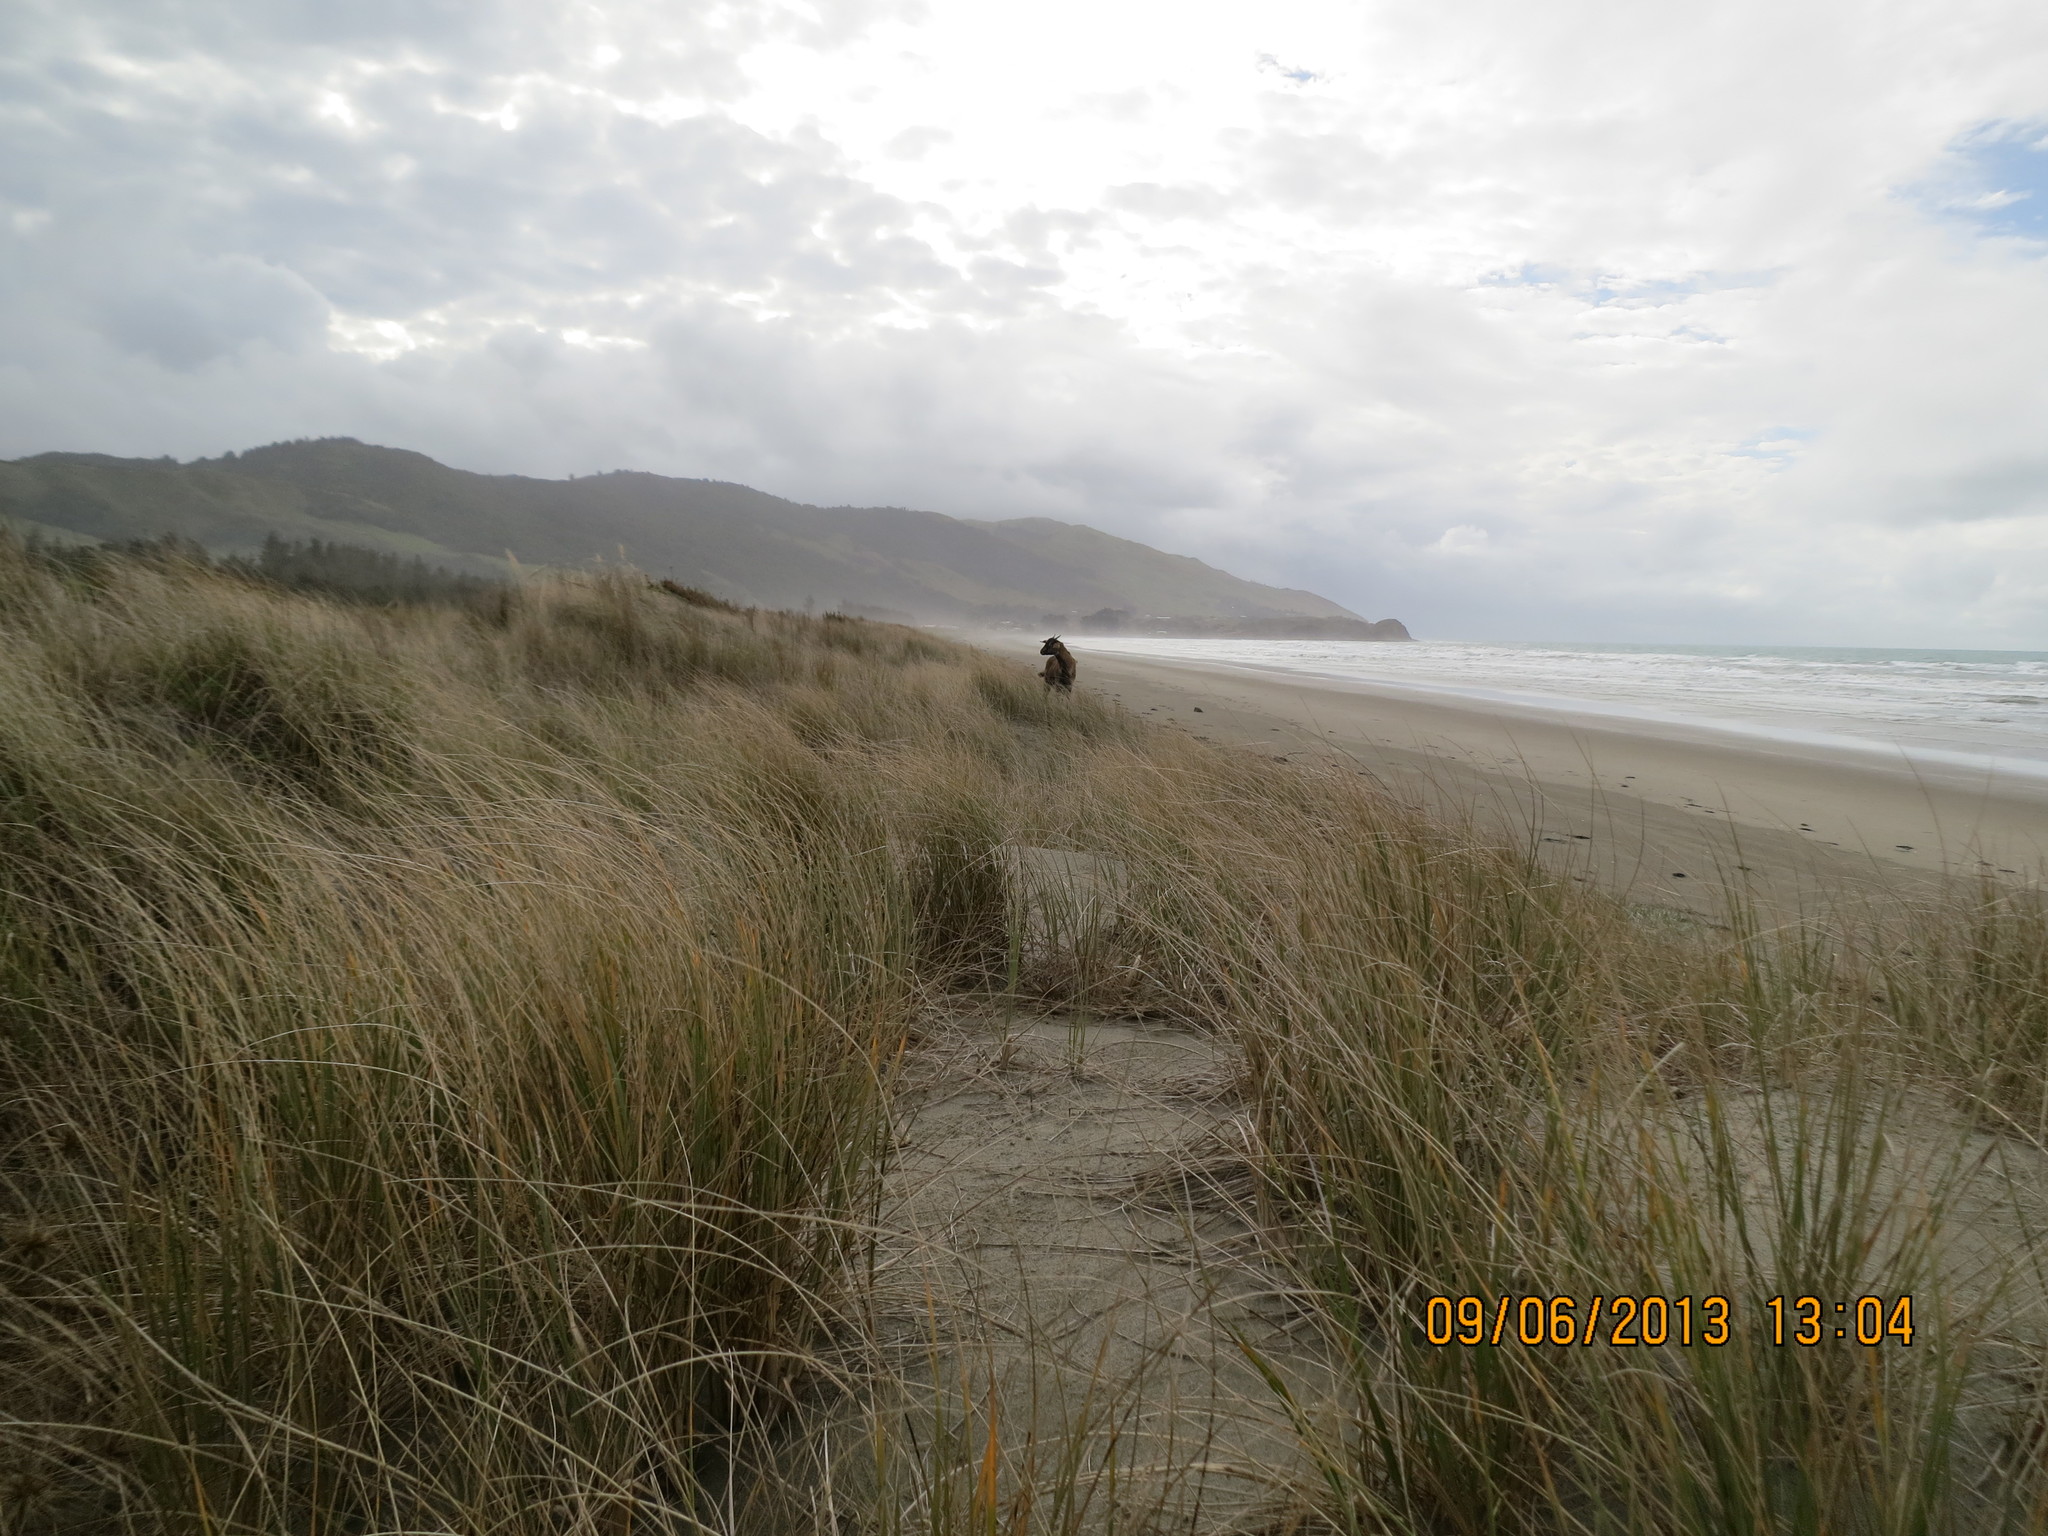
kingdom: Animalia
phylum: Chordata
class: Mammalia
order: Artiodactyla
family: Bovidae
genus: Capra
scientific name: Capra hircus
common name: Domestic goat
